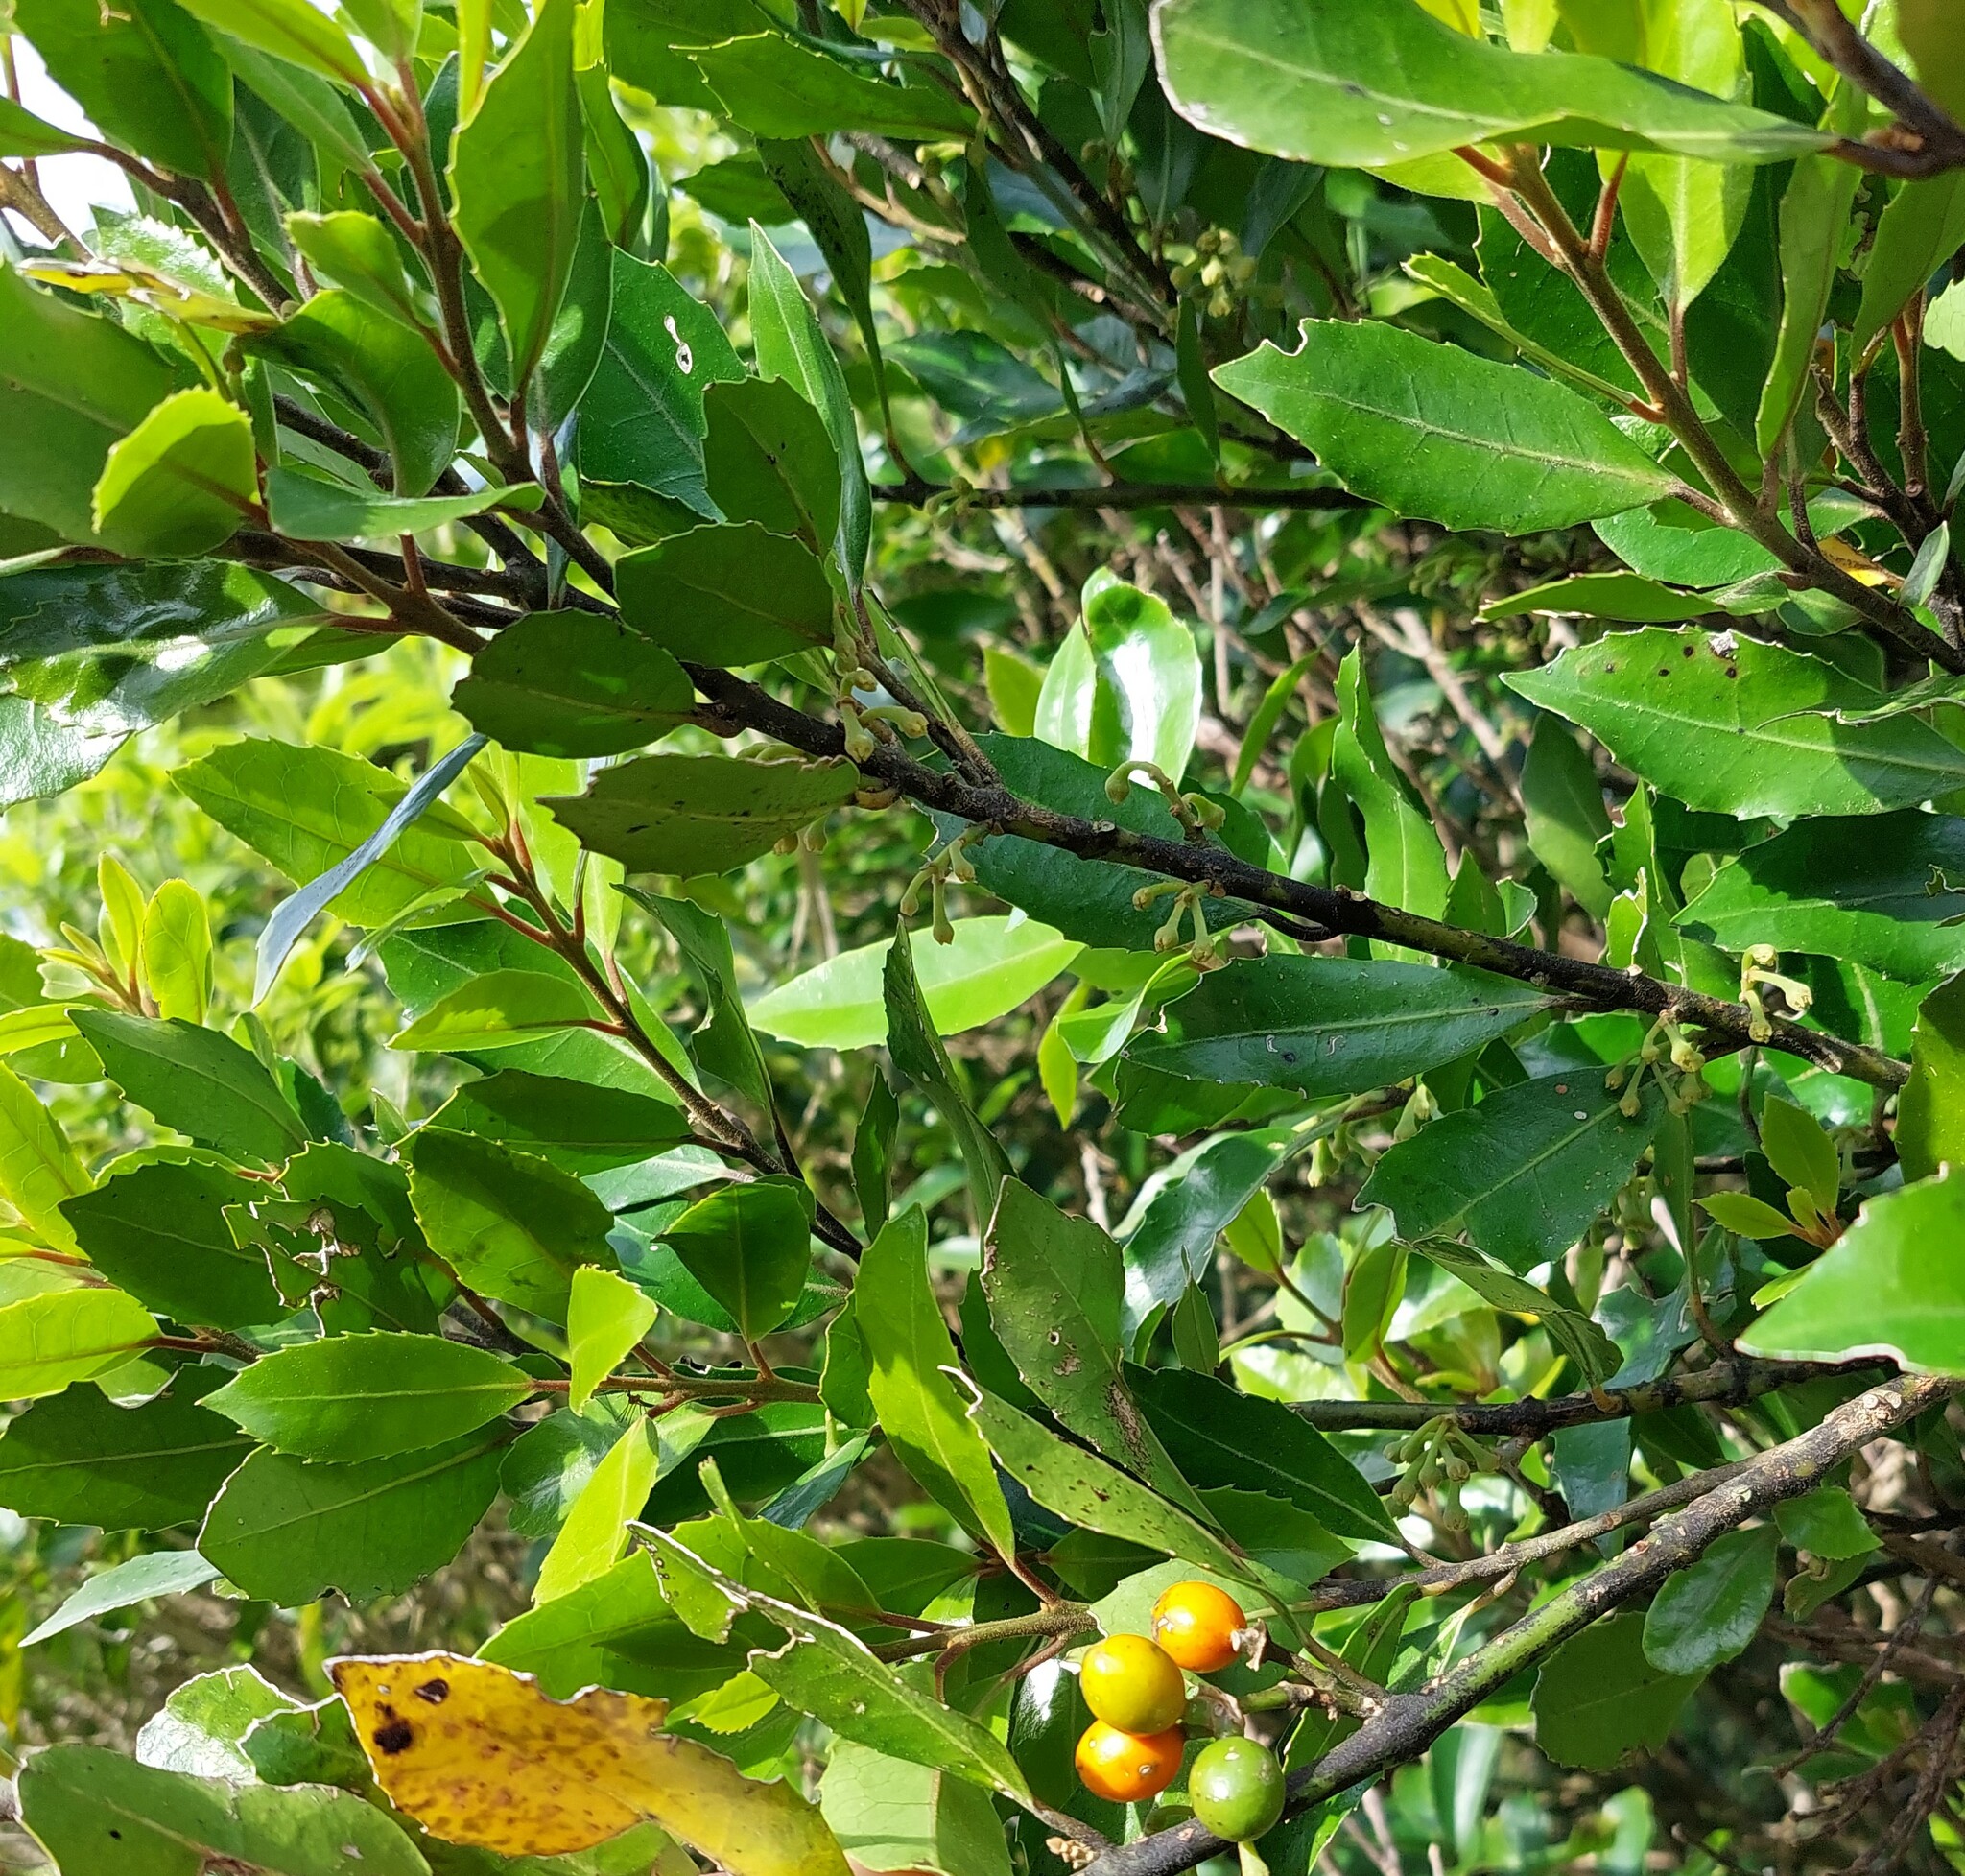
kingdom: Plantae
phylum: Tracheophyta
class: Magnoliopsida
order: Laurales
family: Monimiaceae
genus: Hedycarya
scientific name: Hedycarya arborea
